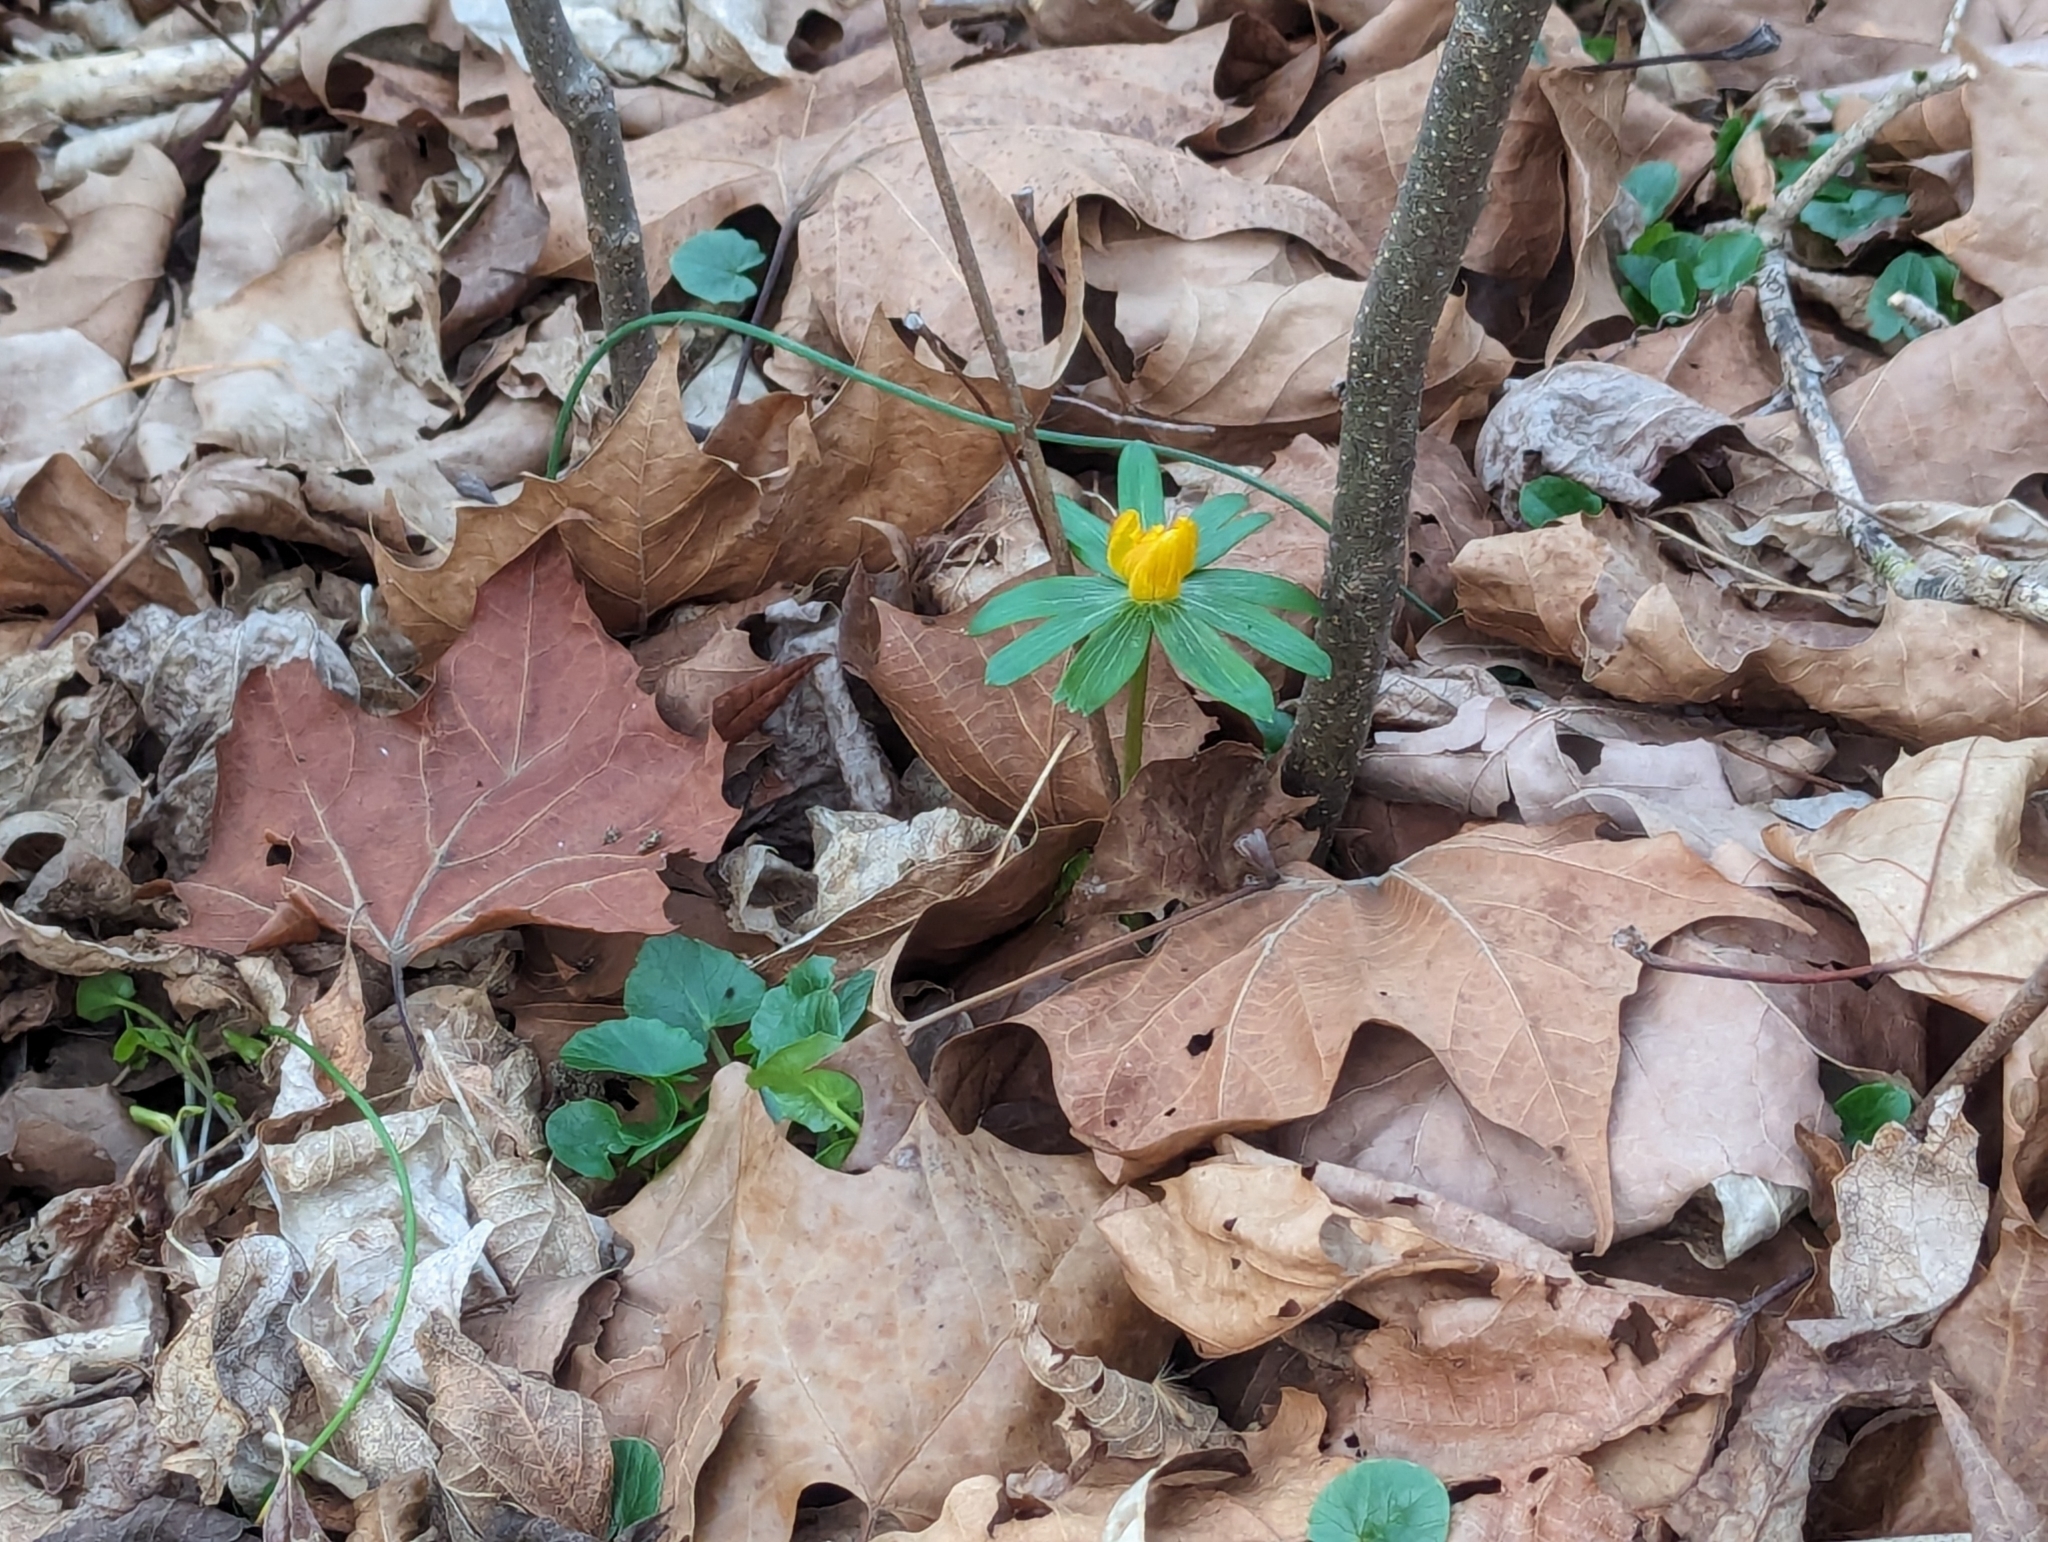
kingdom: Plantae
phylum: Tracheophyta
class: Magnoliopsida
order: Ranunculales
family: Ranunculaceae
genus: Eranthis
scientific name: Eranthis hyemalis
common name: Winter aconite
